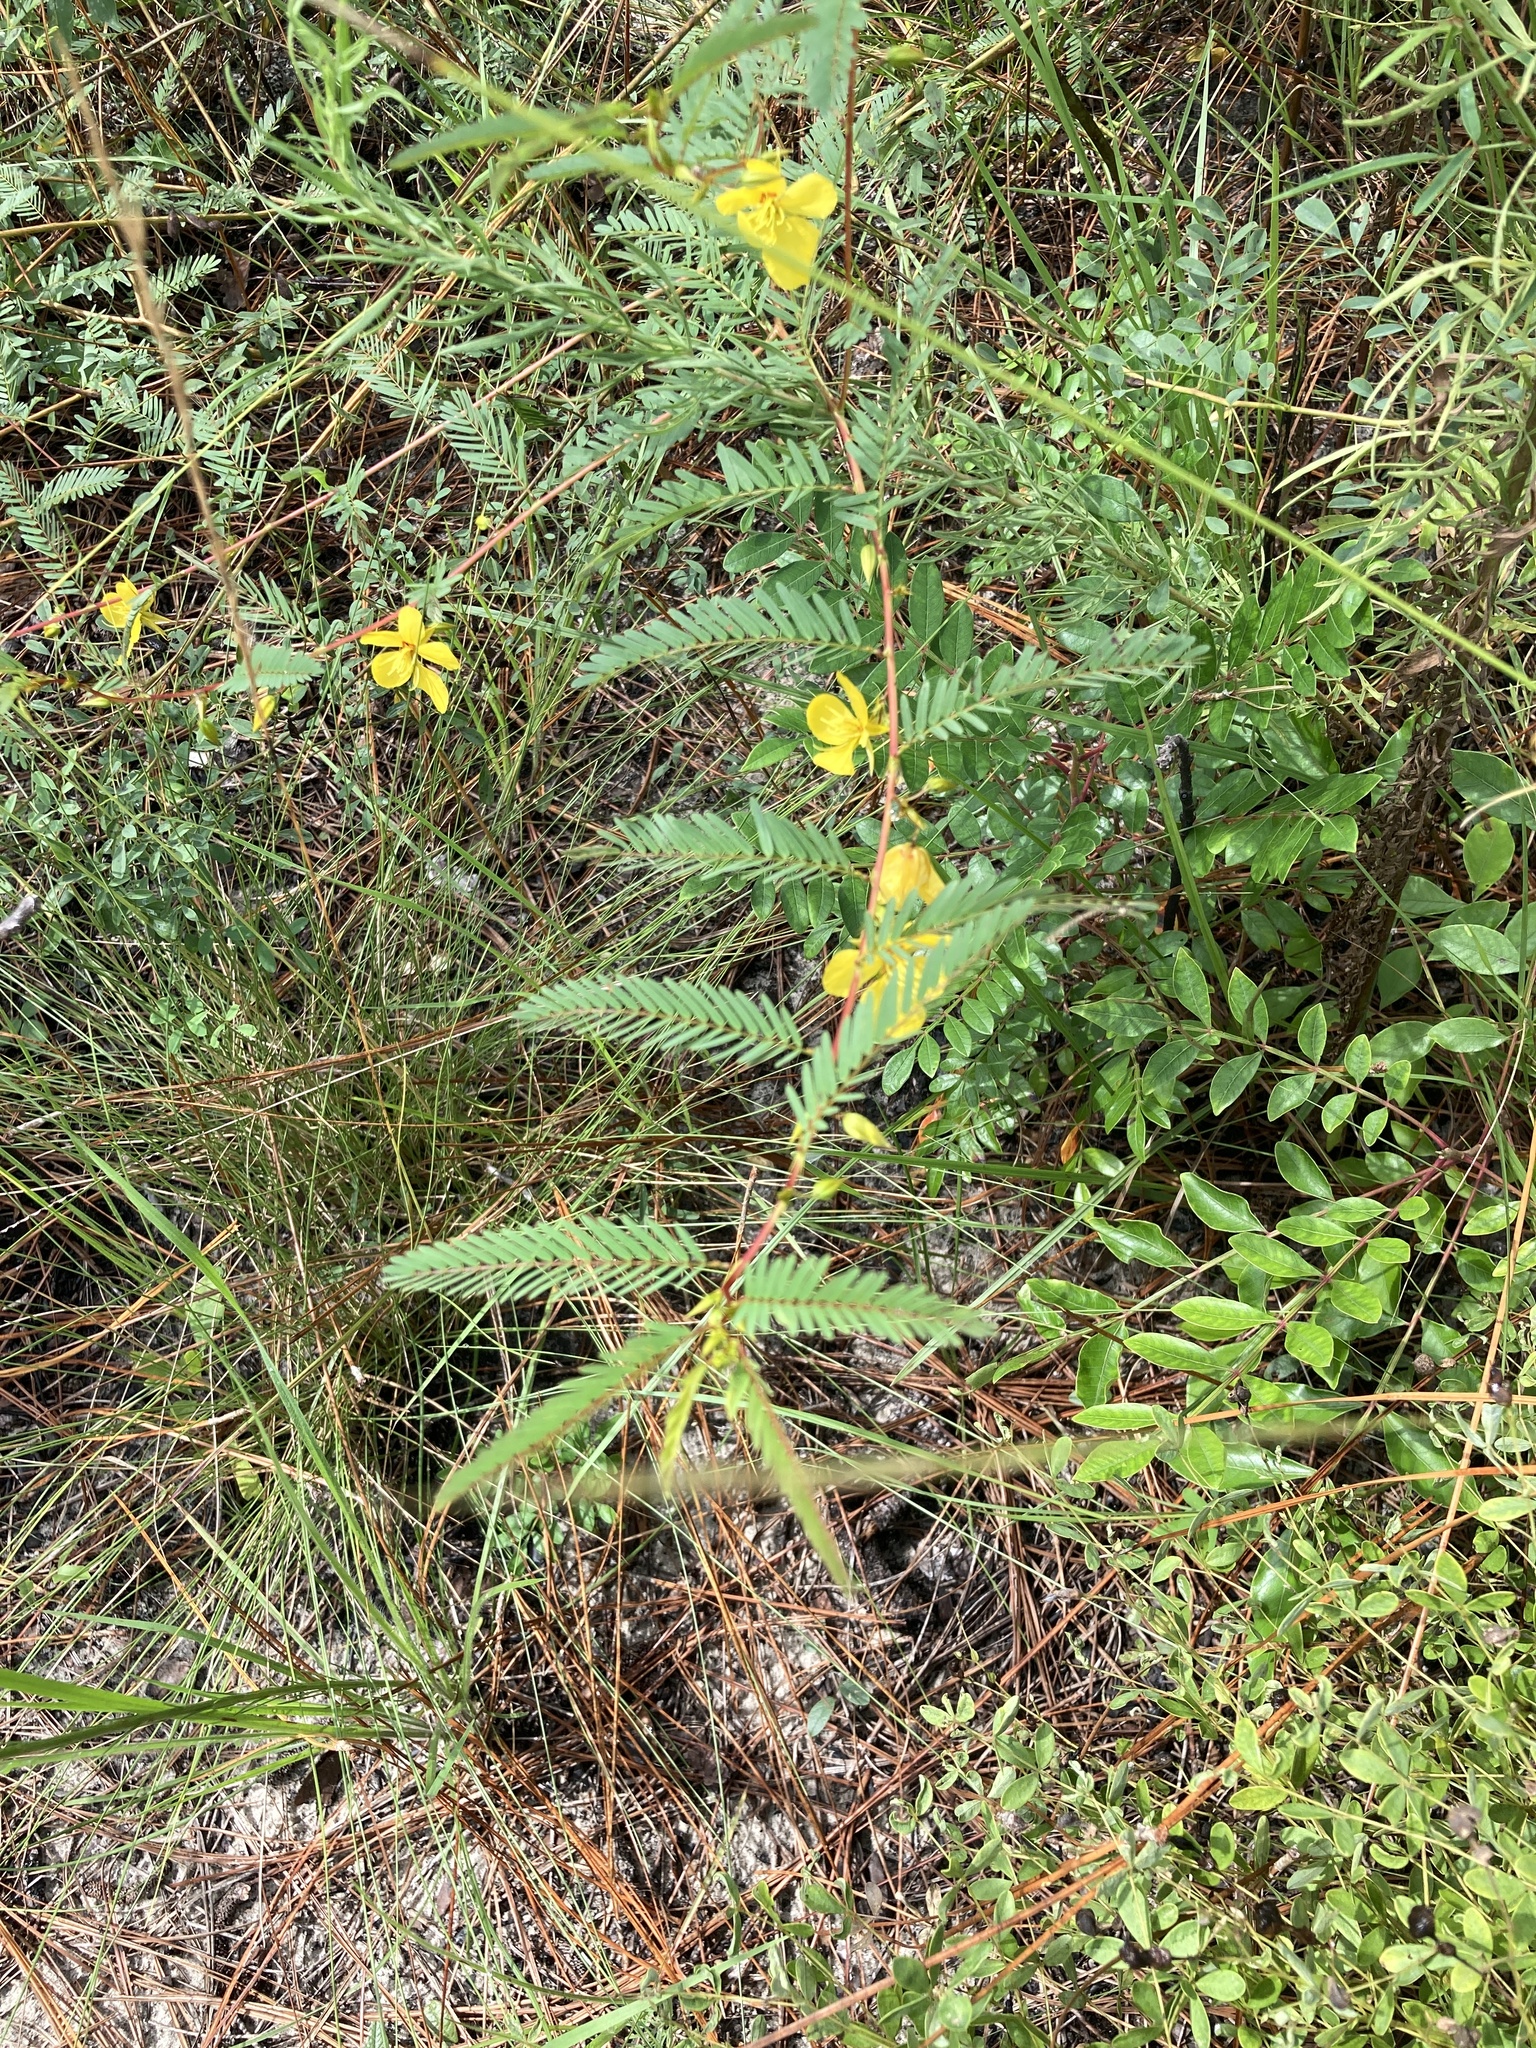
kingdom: Plantae
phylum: Tracheophyta
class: Magnoliopsida
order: Fabales
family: Fabaceae
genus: Chamaecrista
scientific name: Chamaecrista fasciculata
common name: Golden cassia
